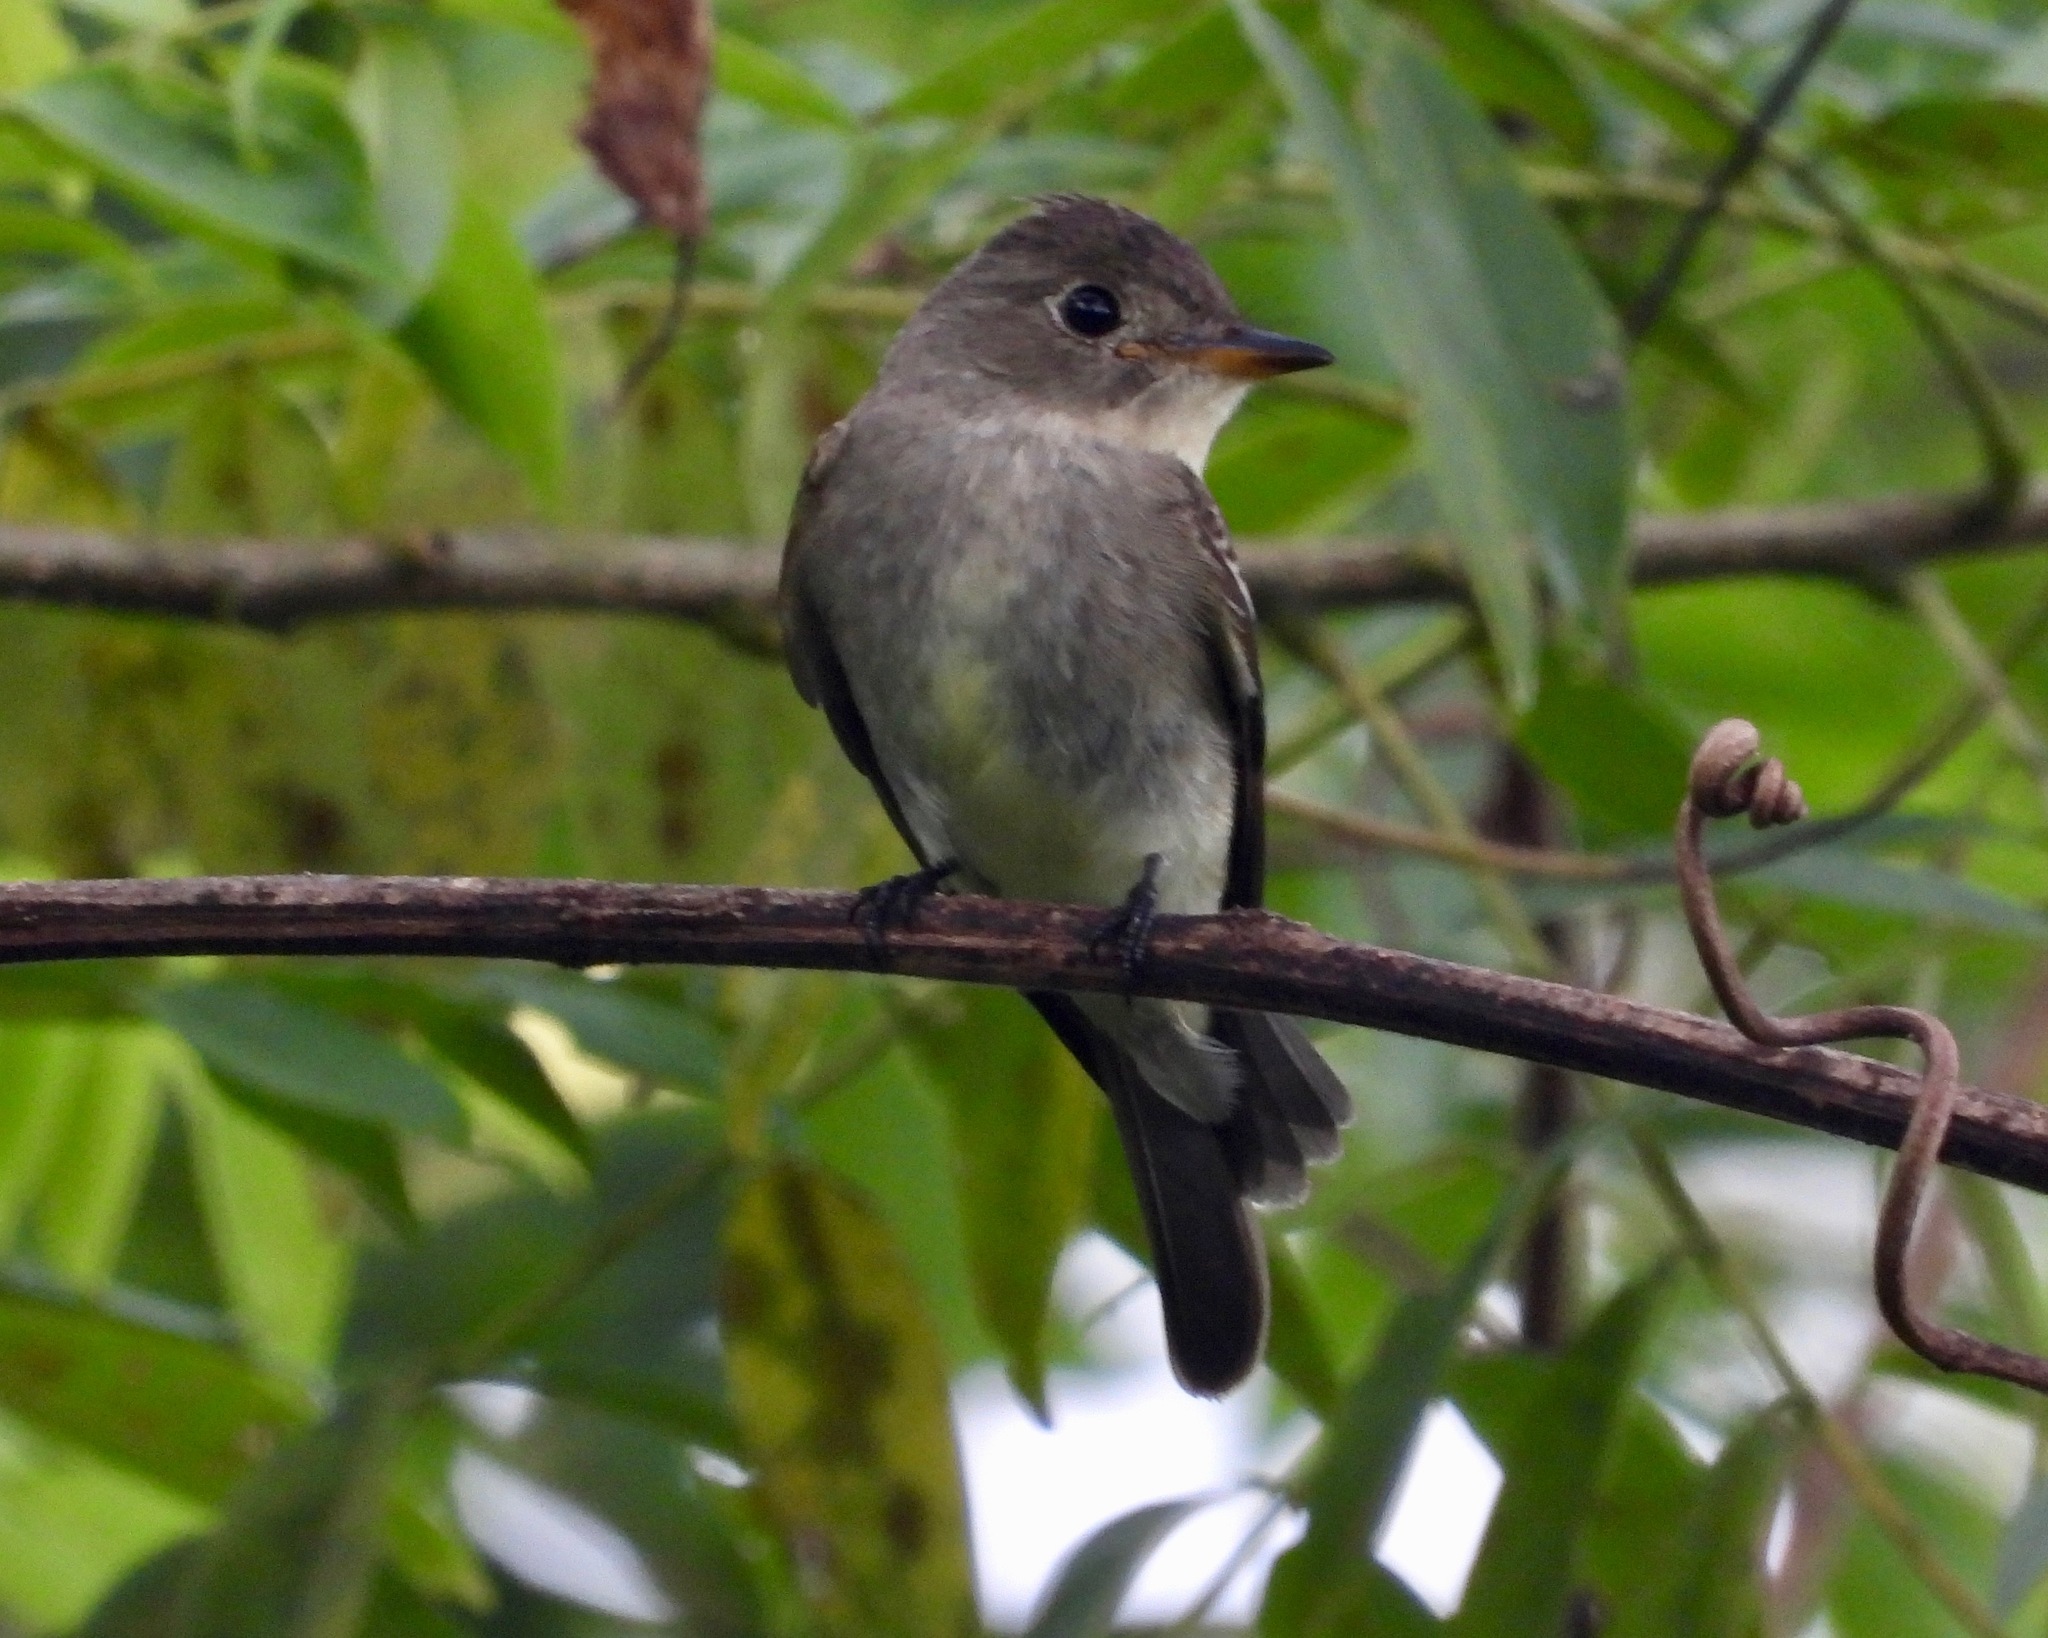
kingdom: Animalia
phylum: Chordata
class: Aves
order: Passeriformes
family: Tyrannidae
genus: Contopus
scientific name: Contopus cinereus
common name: Tropical pewee
